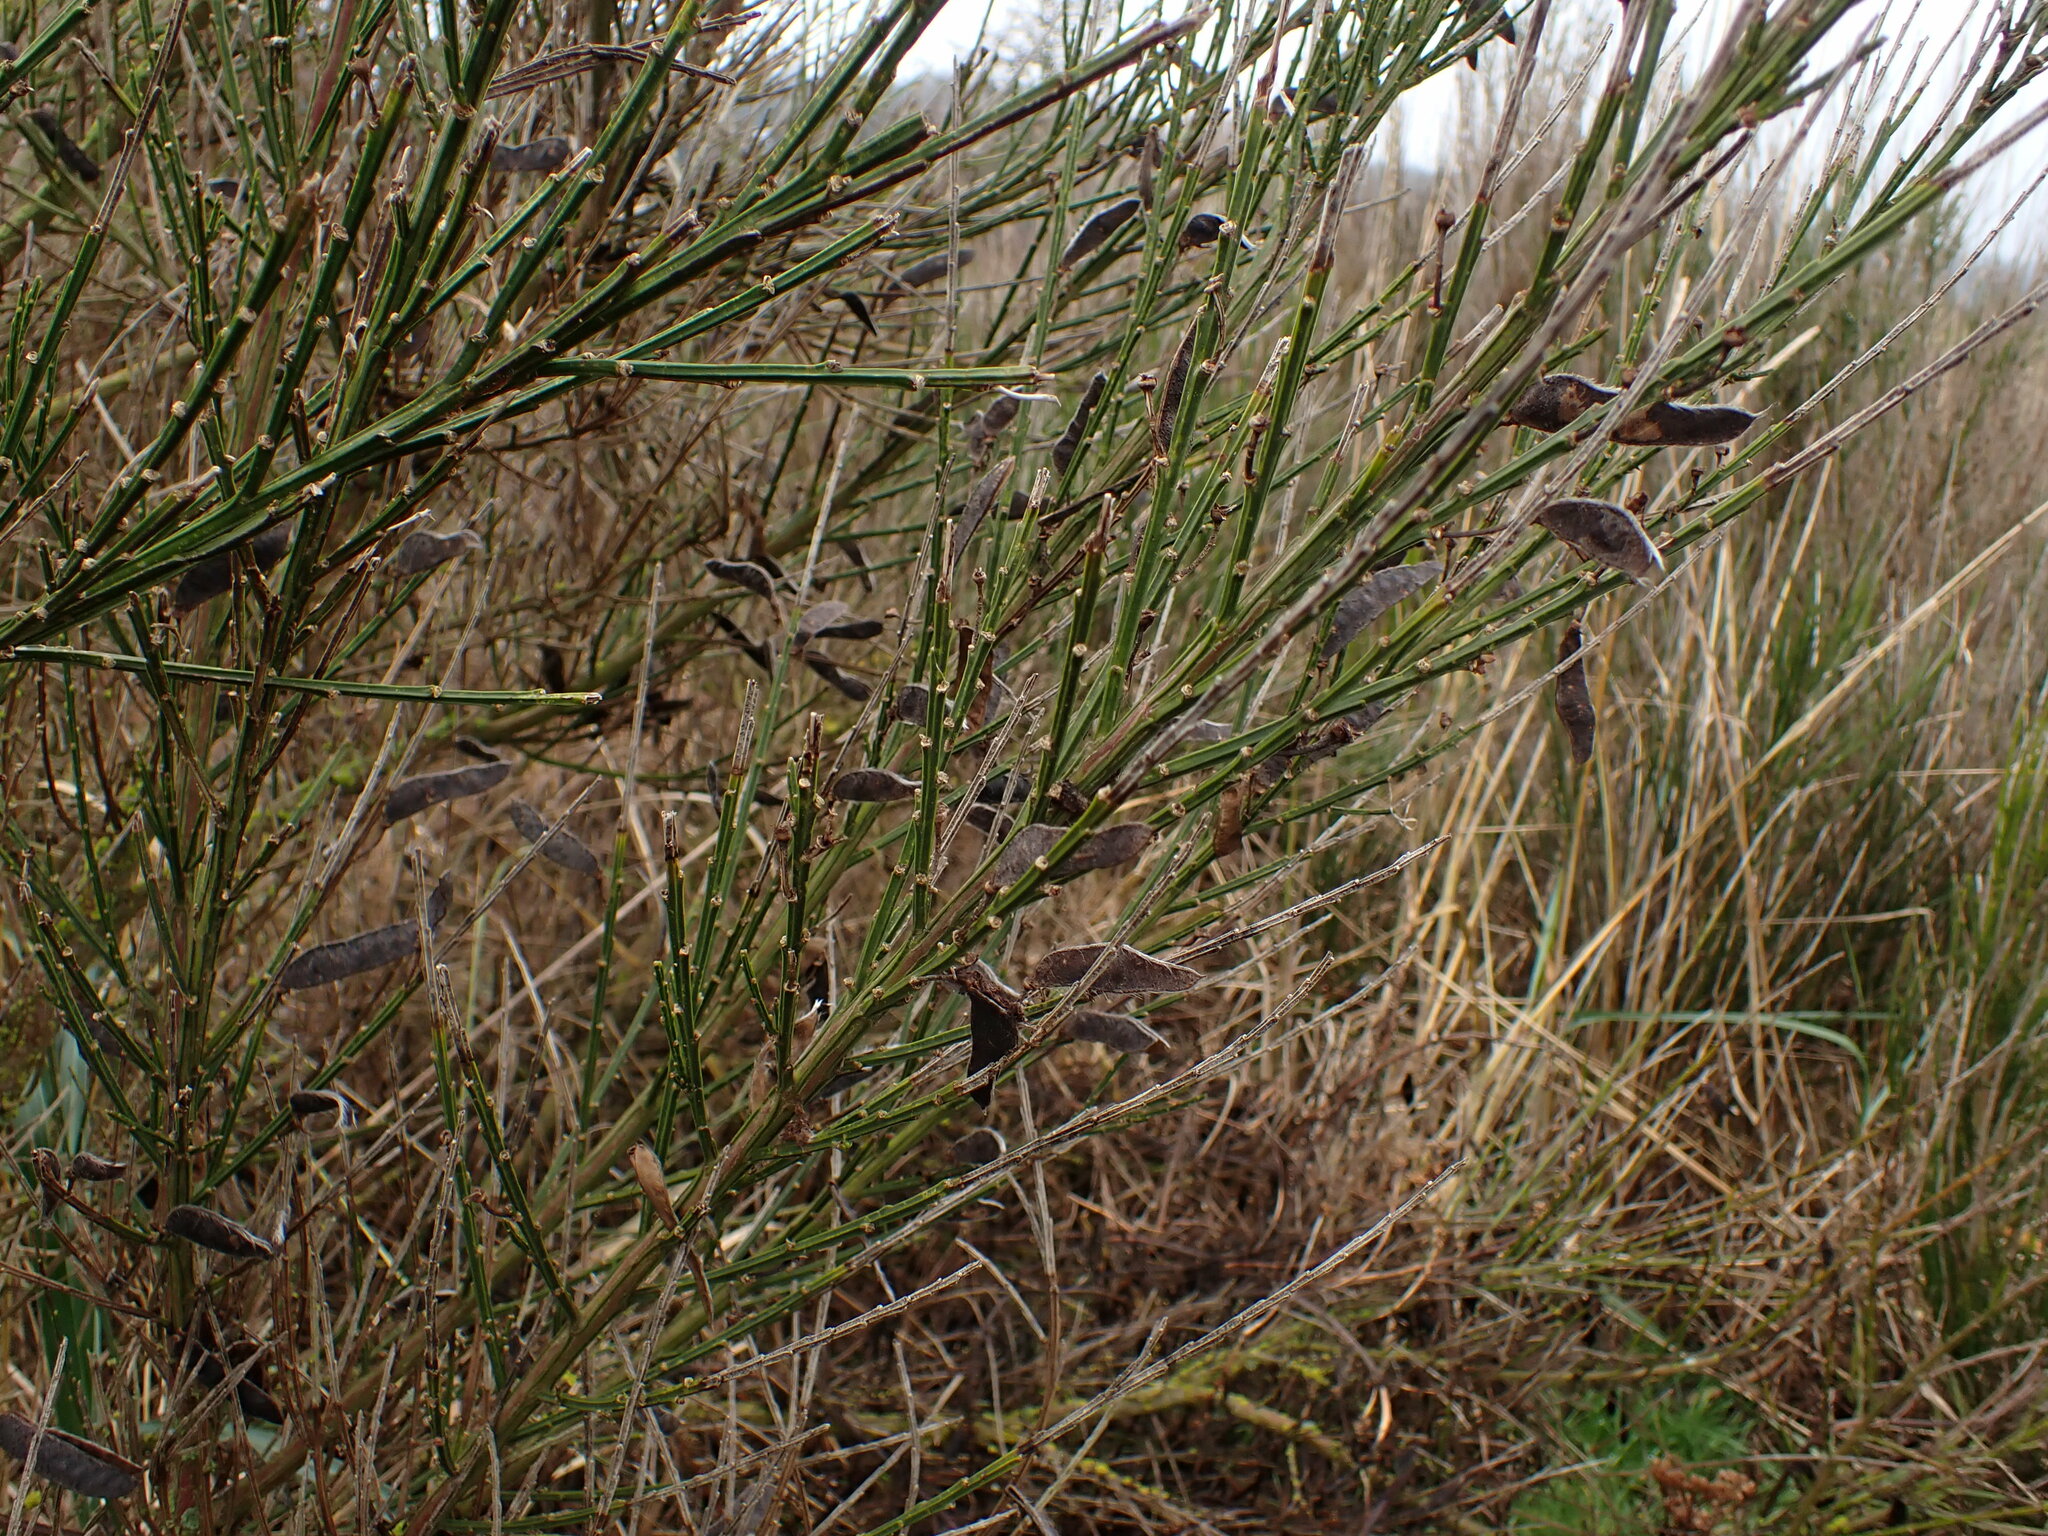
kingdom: Plantae
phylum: Tracheophyta
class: Magnoliopsida
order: Fabales
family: Fabaceae
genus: Cytisus
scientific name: Cytisus scoparius
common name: Scotch broom
